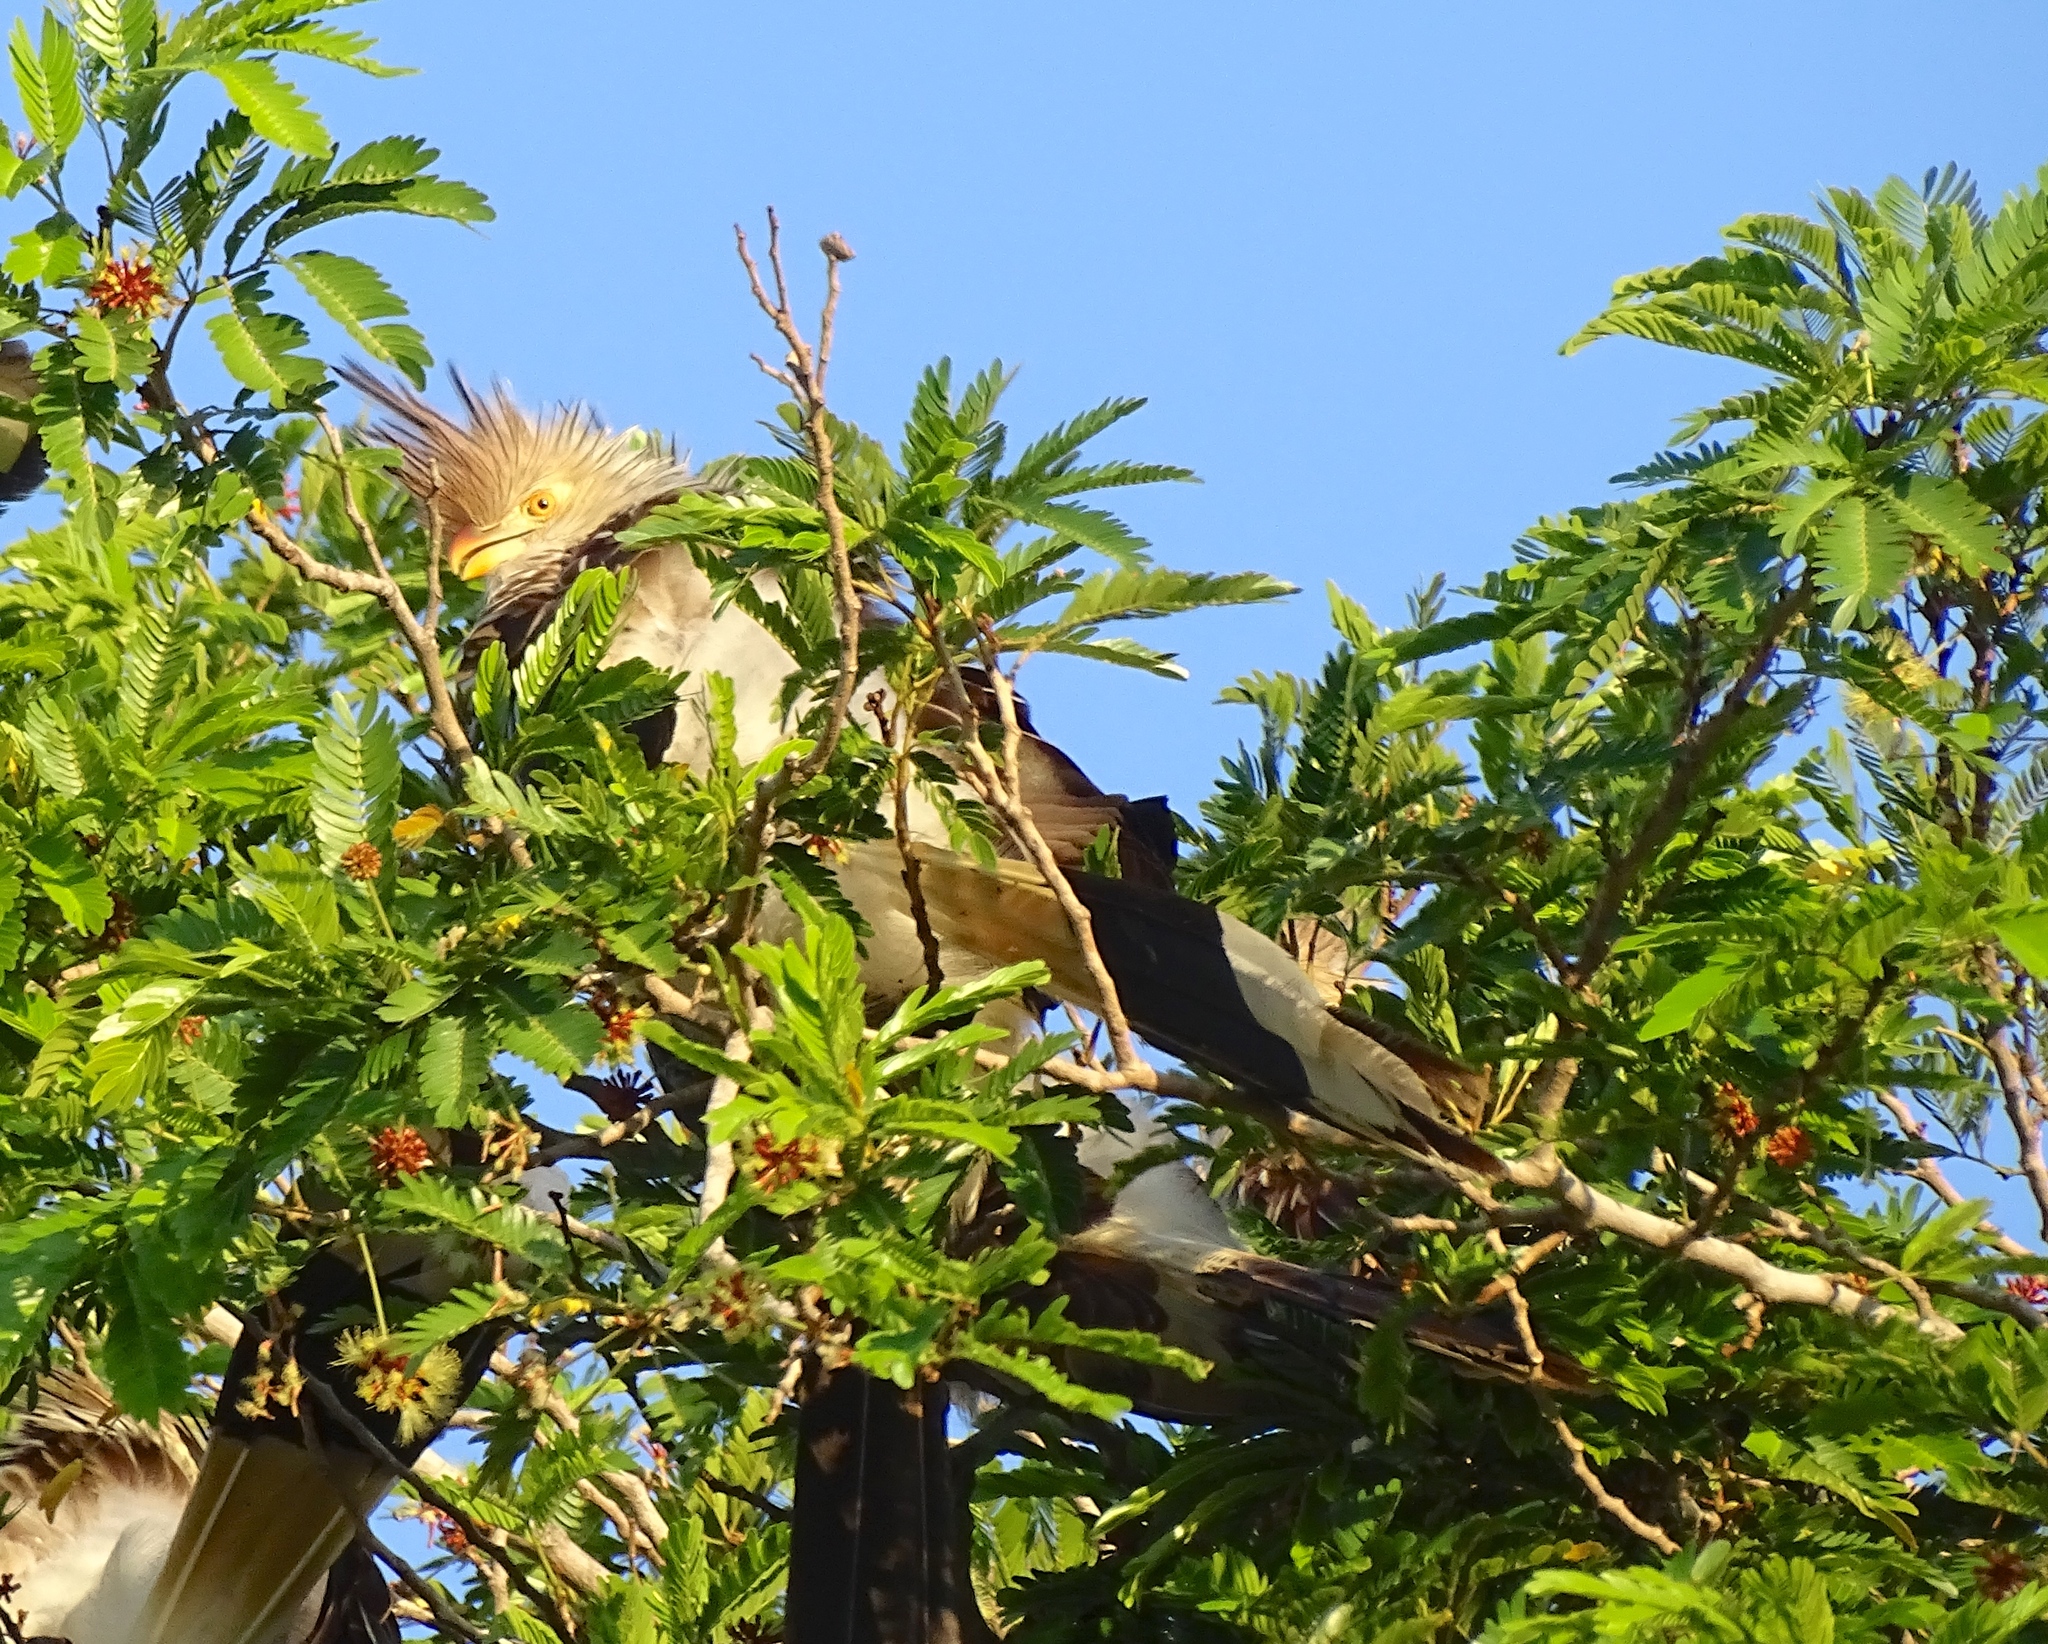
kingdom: Animalia
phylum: Chordata
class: Aves
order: Cuculiformes
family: Cuculidae
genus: Guira
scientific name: Guira guira
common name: Guira cuckoo
